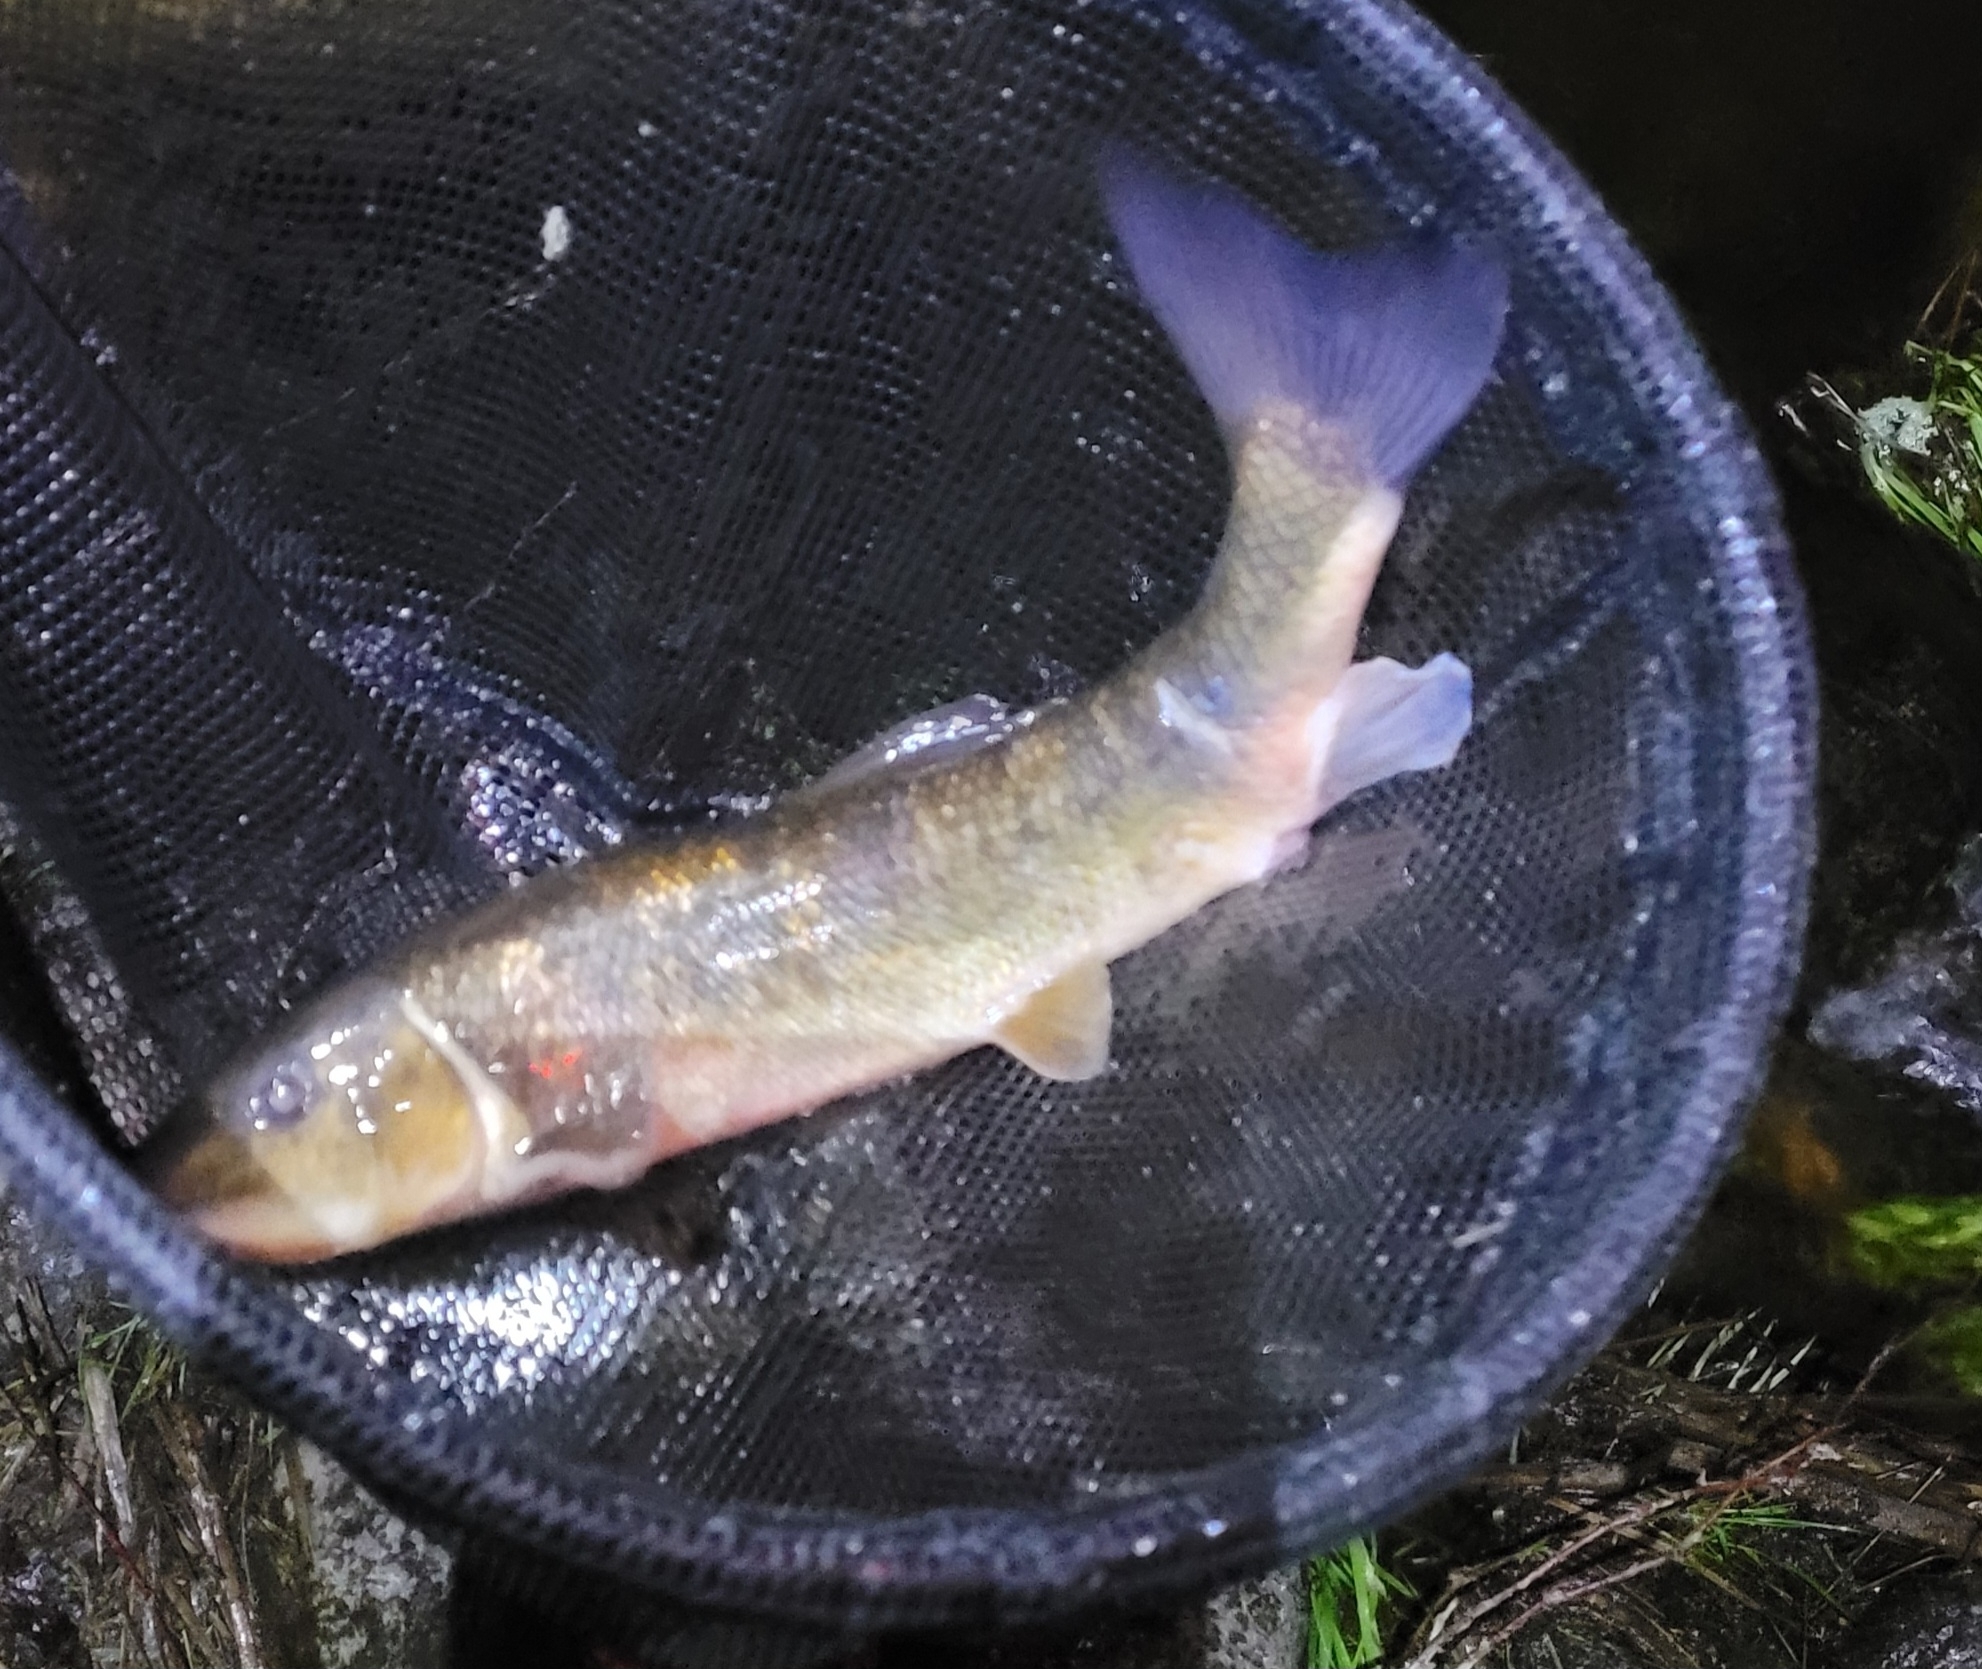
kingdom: Animalia
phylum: Chordata
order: Cypriniformes
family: Catostomidae
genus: Catostomus
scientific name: Catostomus commersonii
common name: White sucker
